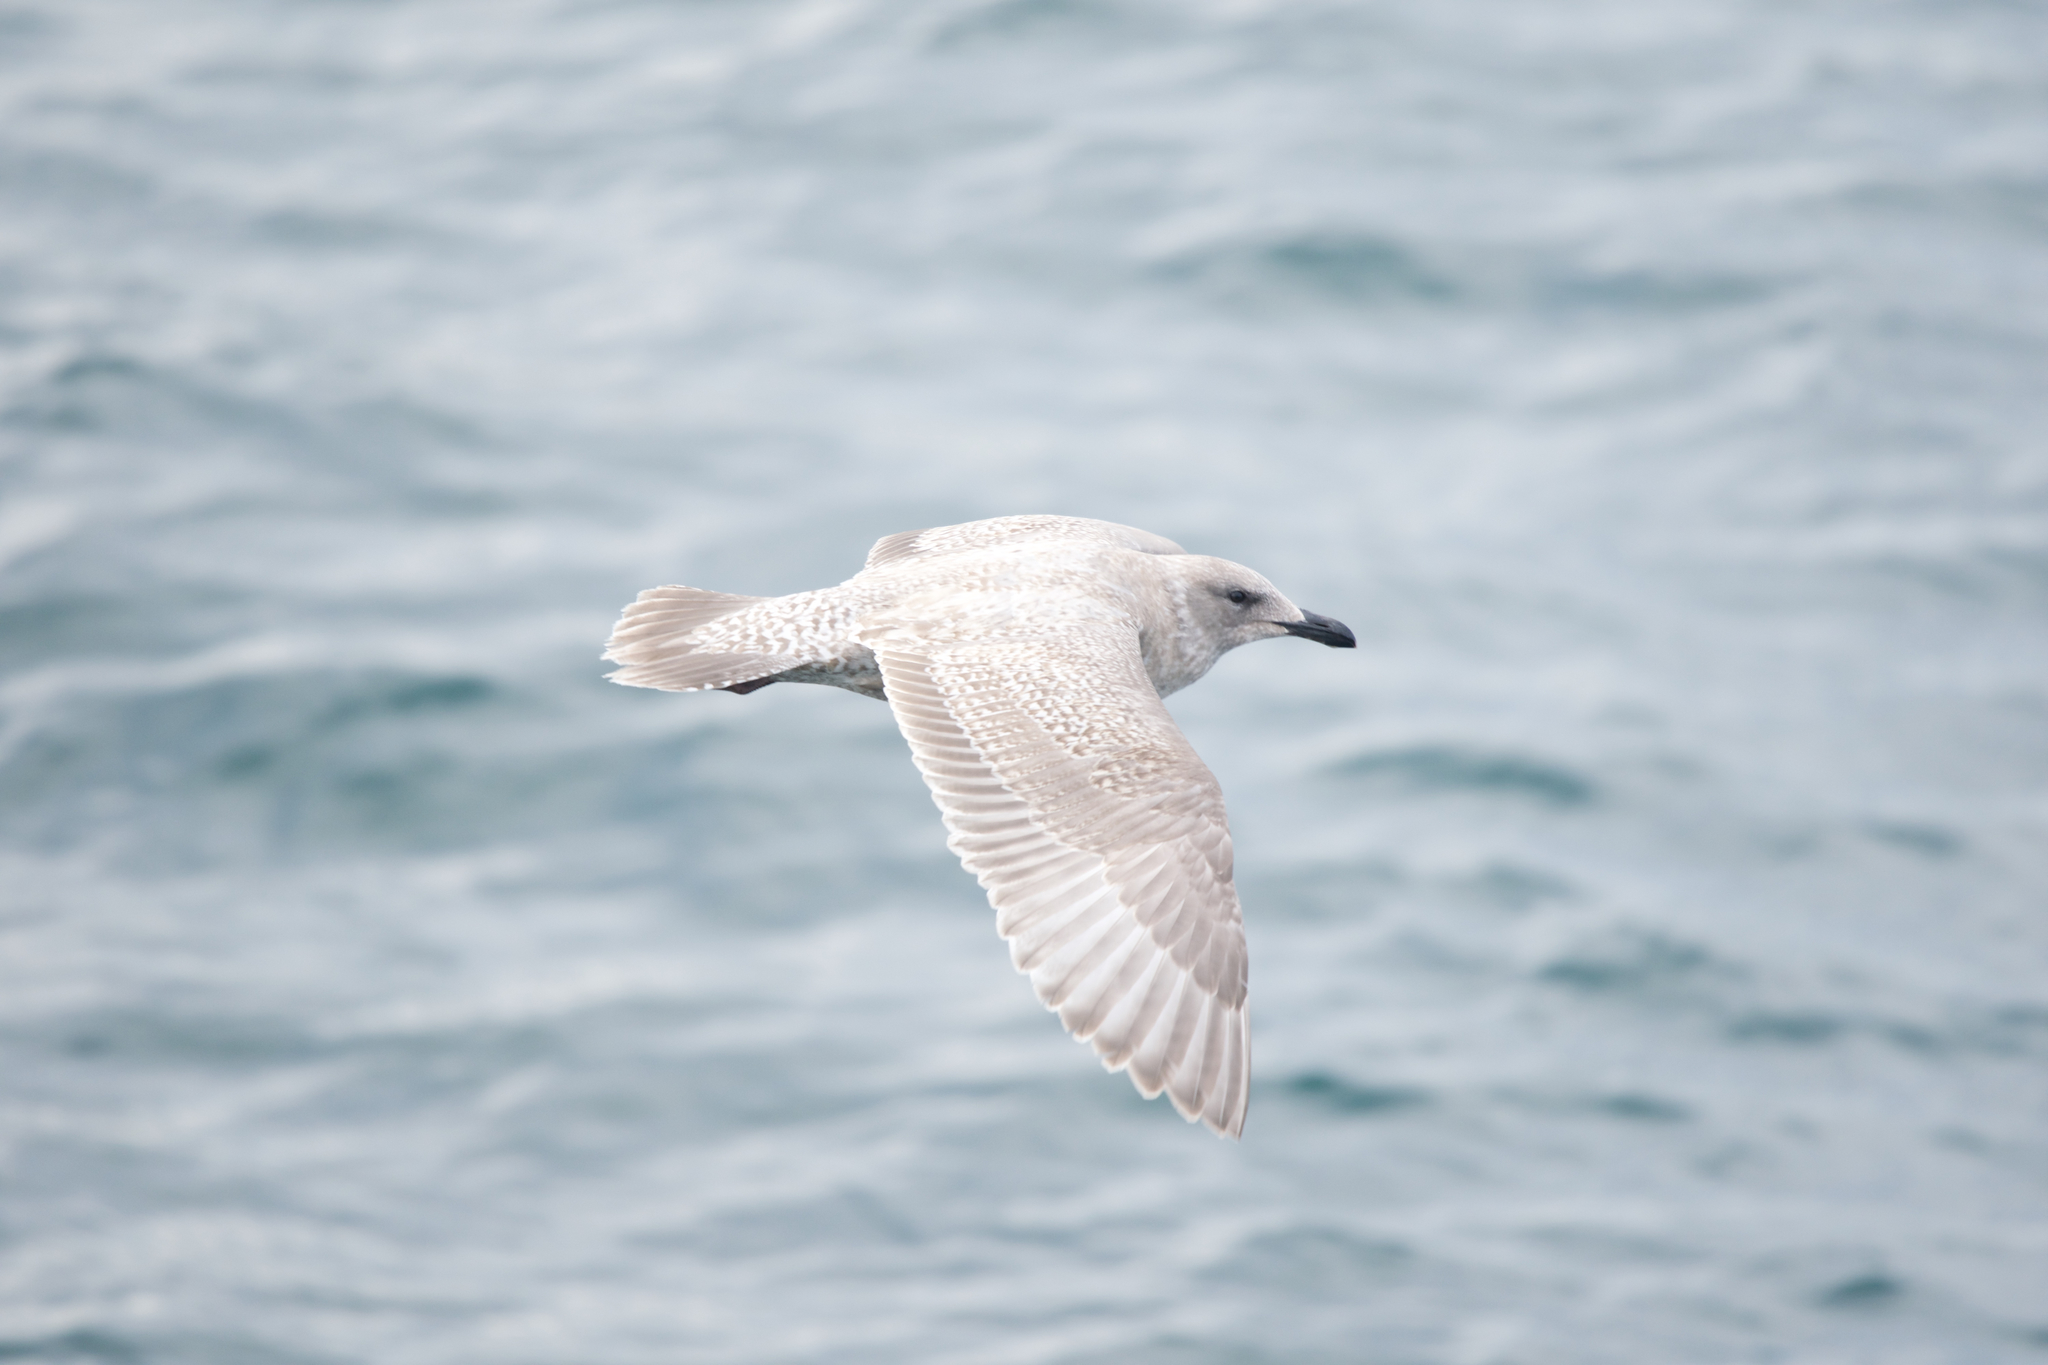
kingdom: Animalia
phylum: Chordata
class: Aves
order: Charadriiformes
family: Laridae
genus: Larus
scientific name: Larus glaucescens
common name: Glaucous-winged gull
